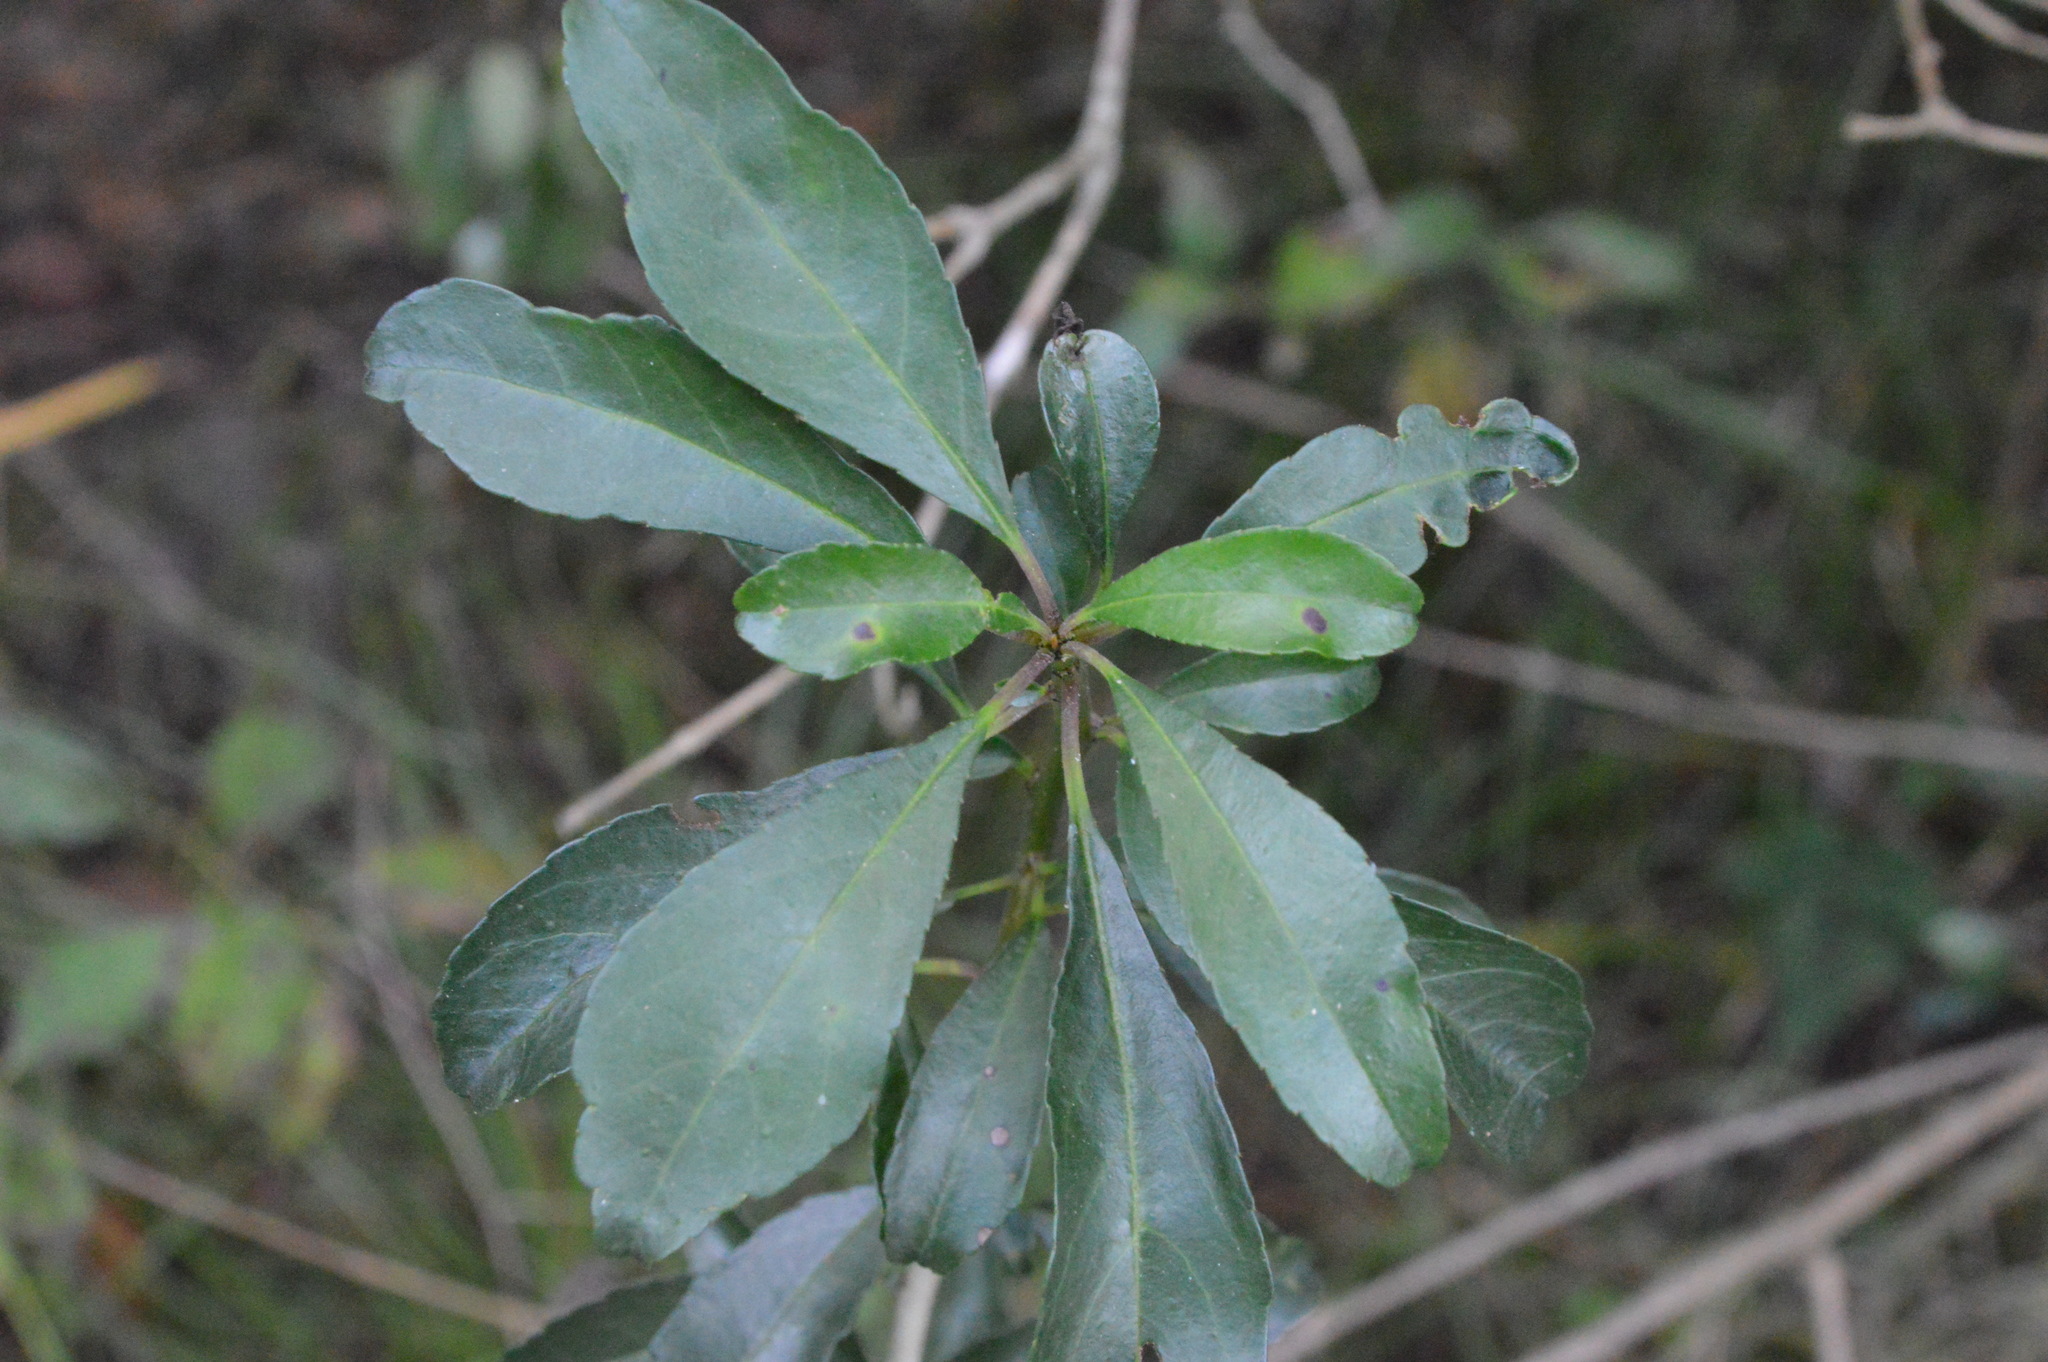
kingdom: Plantae
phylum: Tracheophyta
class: Magnoliopsida
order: Aquifoliales
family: Aquifoliaceae
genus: Ilex
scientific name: Ilex decidua
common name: Possum-haw
